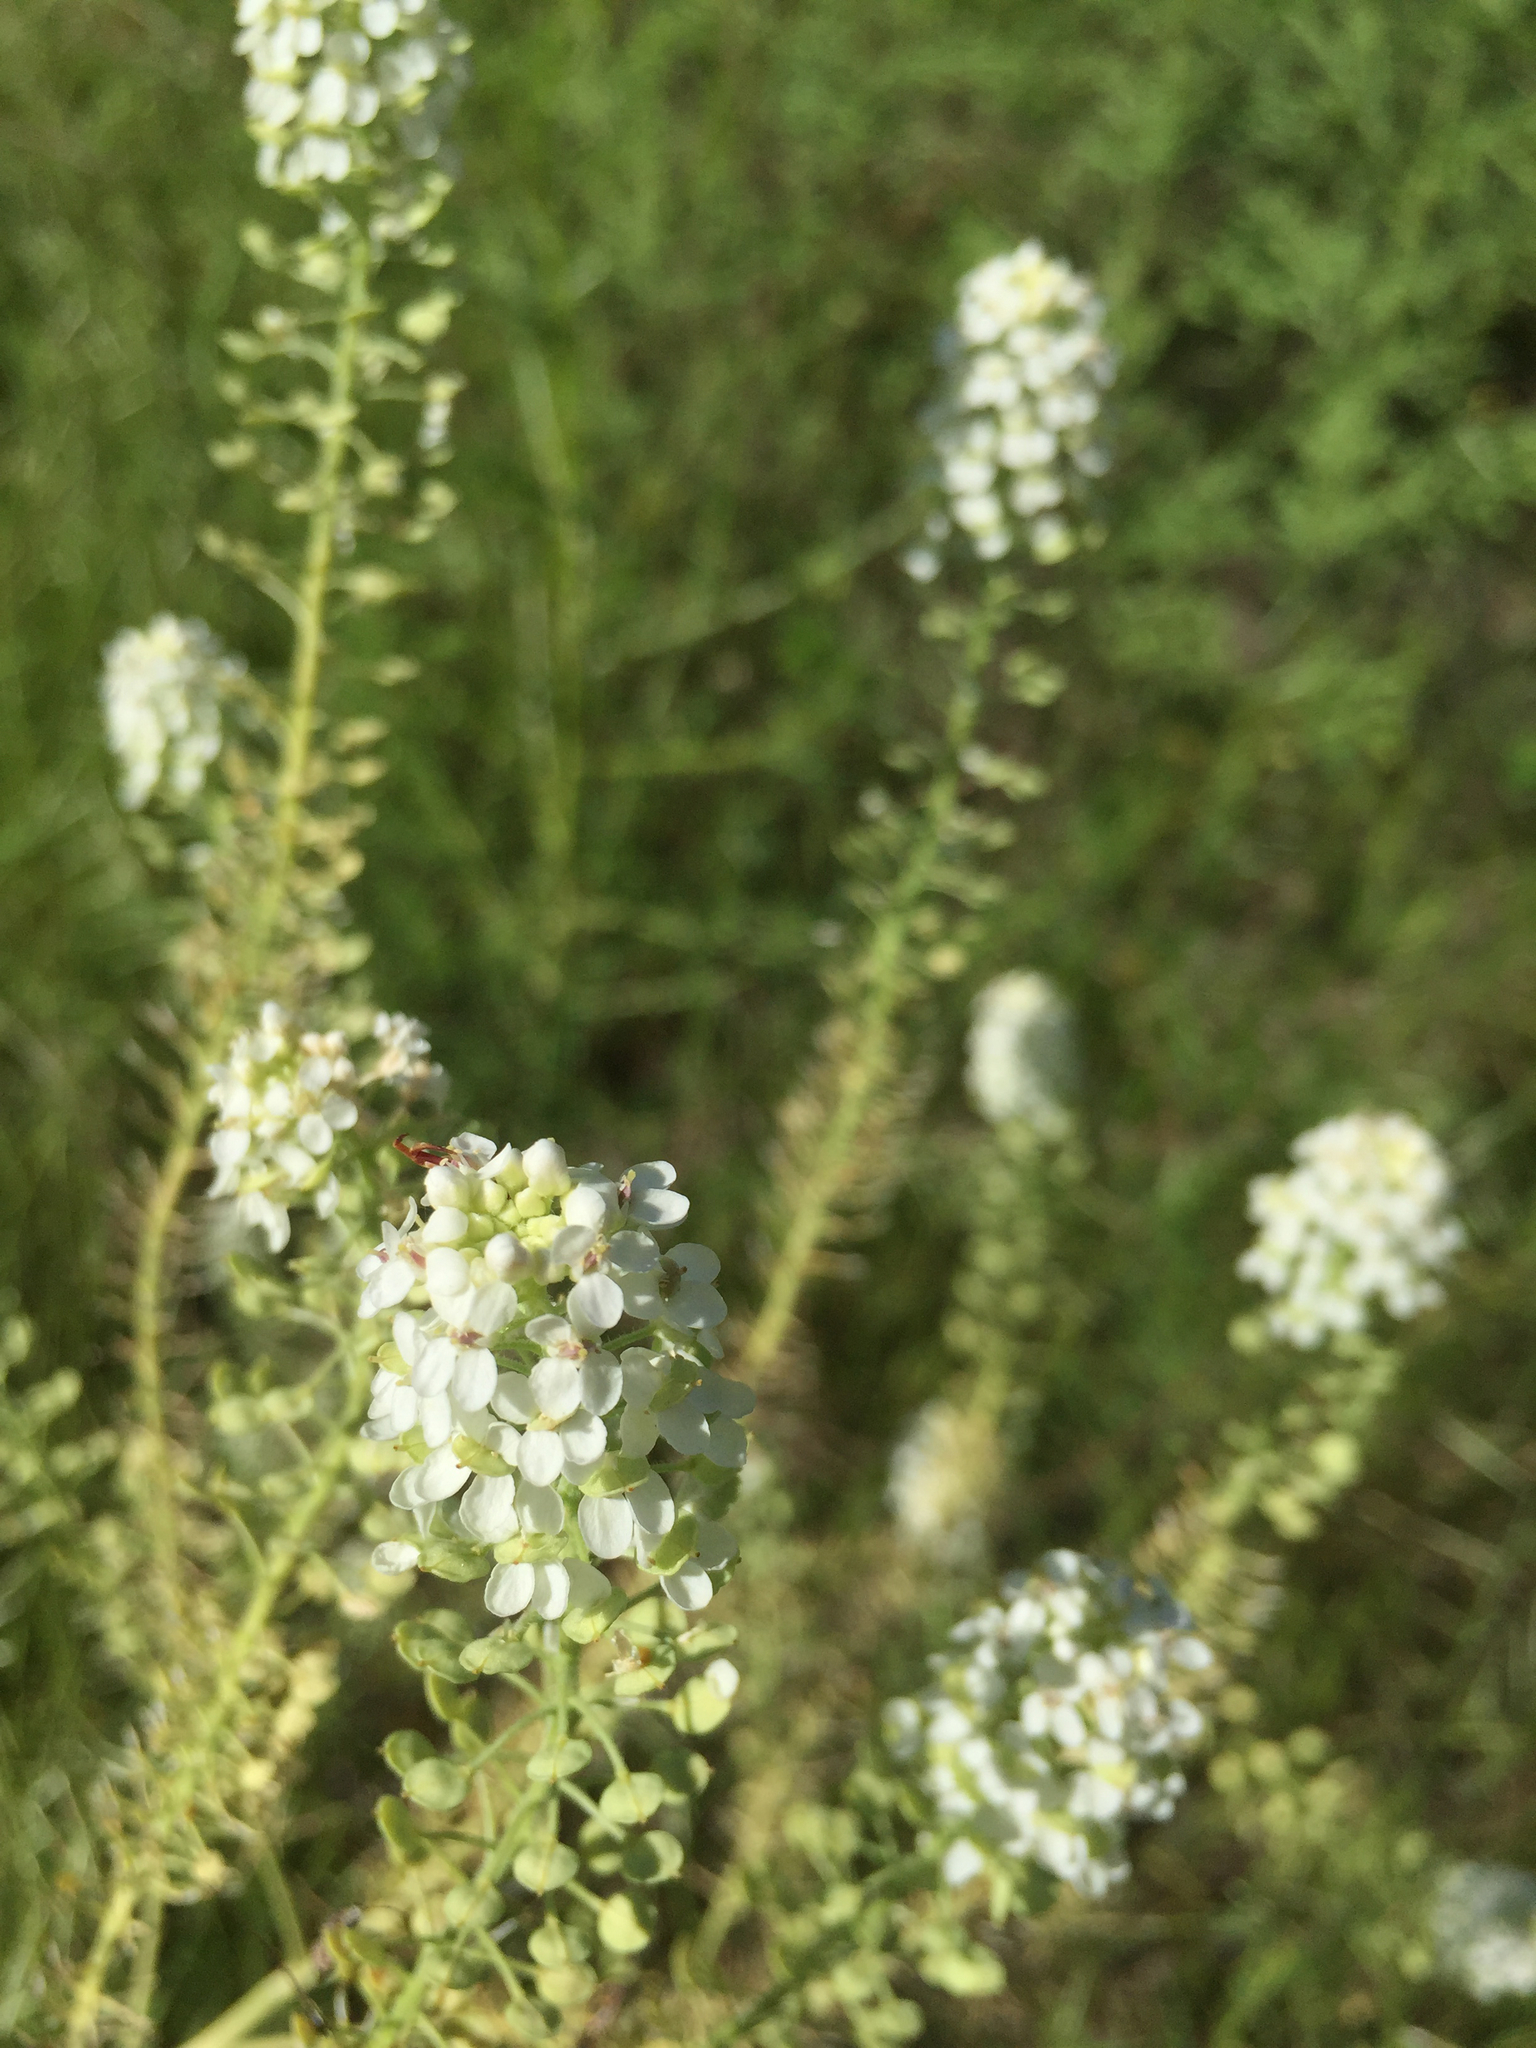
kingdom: Plantae
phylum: Tracheophyta
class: Magnoliopsida
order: Brassicales
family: Brassicaceae
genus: Lepidium
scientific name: Lepidium thurberi
